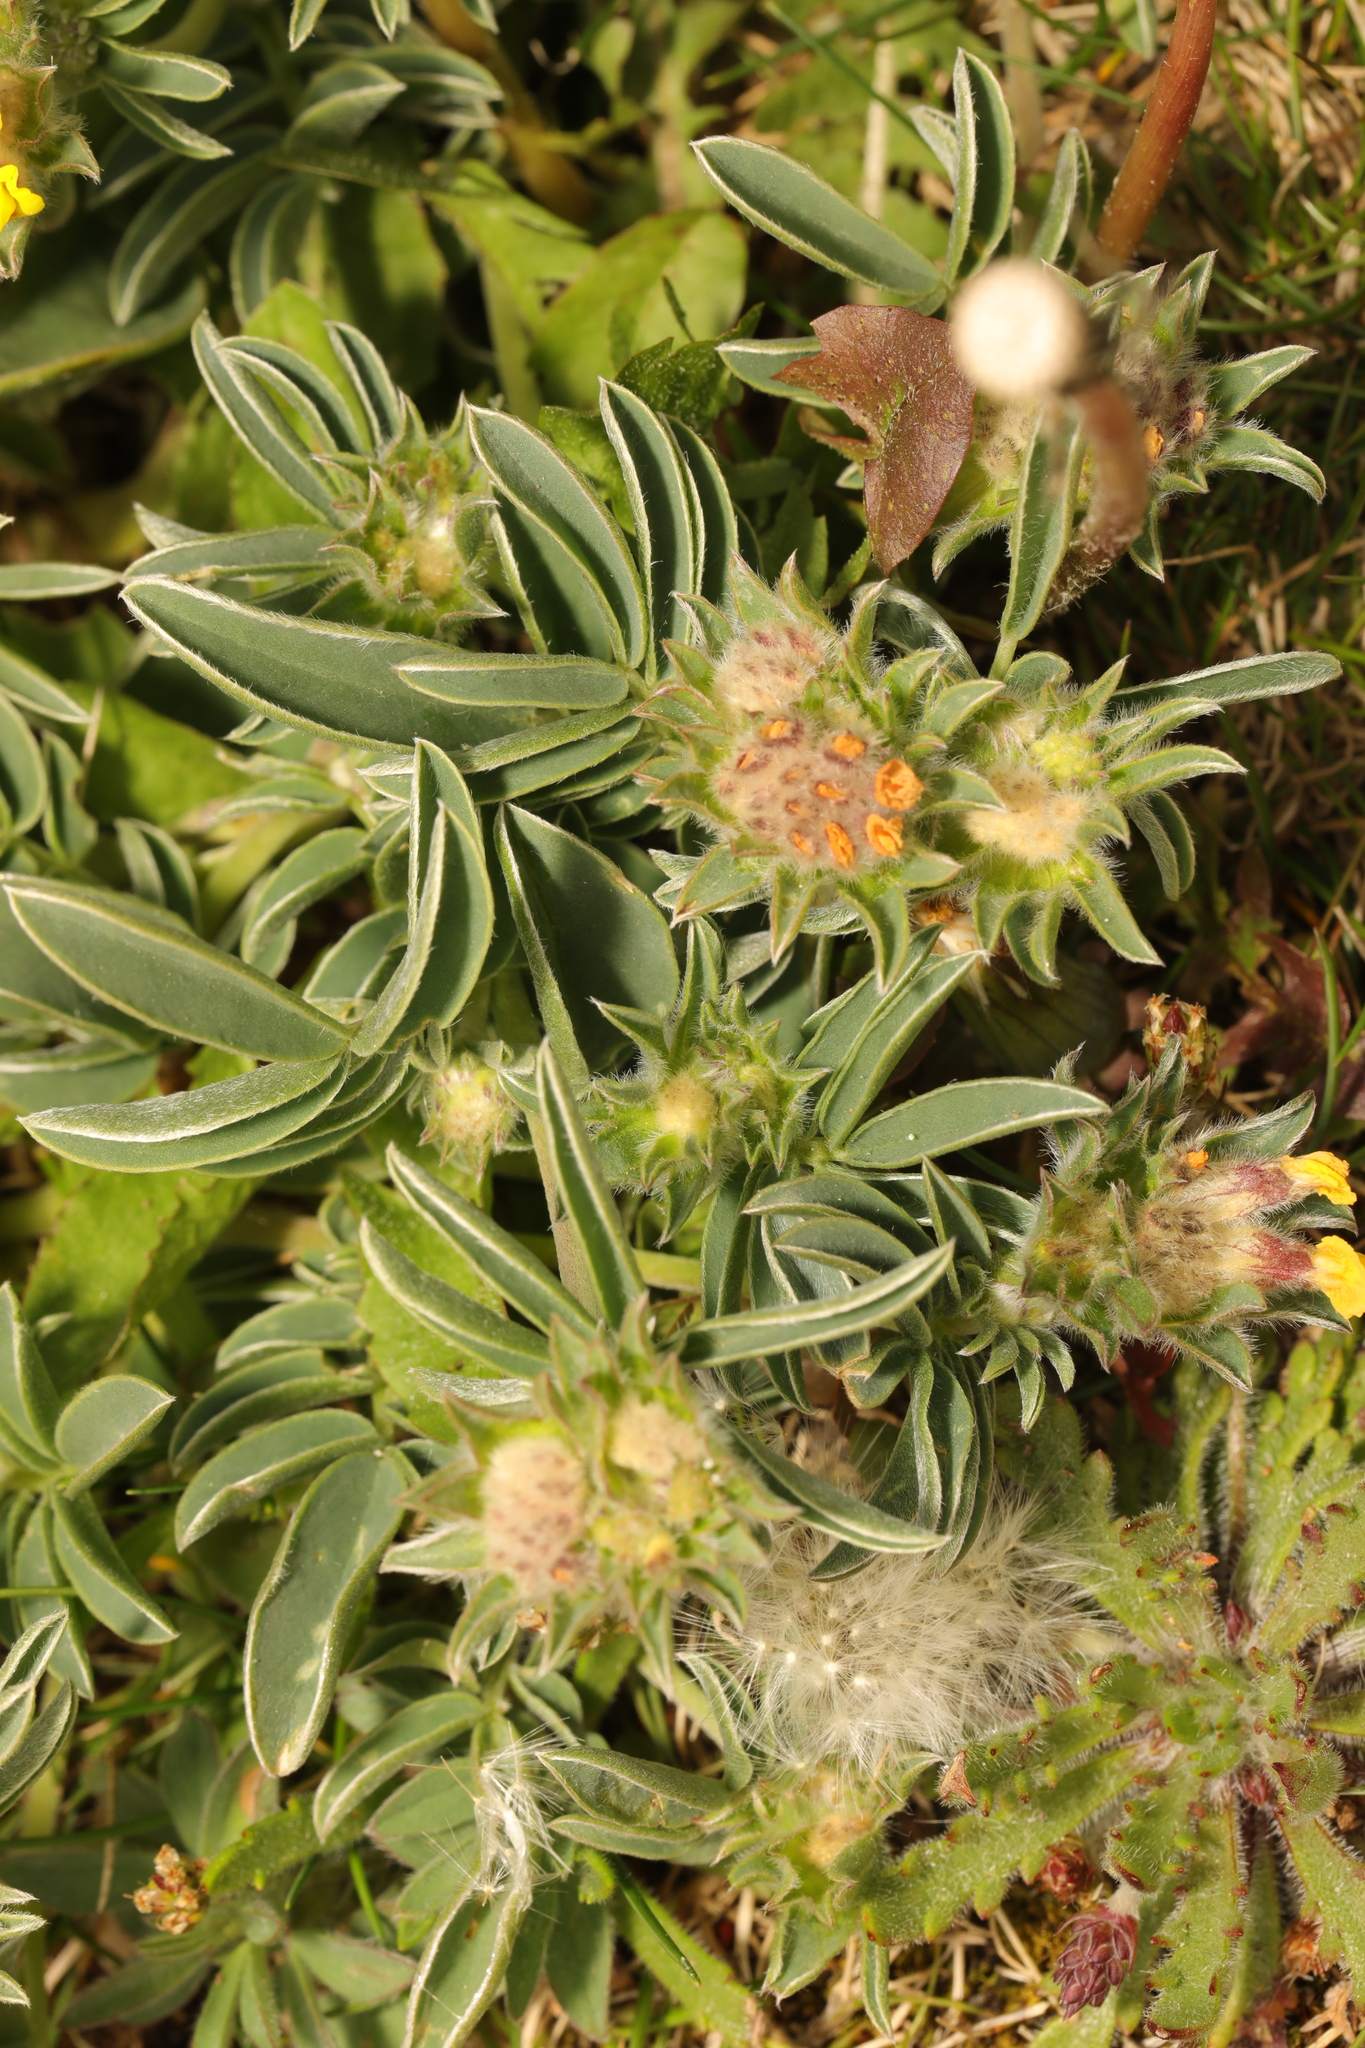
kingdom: Plantae
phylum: Tracheophyta
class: Magnoliopsida
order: Fabales
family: Fabaceae
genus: Anthyllis
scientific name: Anthyllis vulneraria
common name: Kidney vetch
